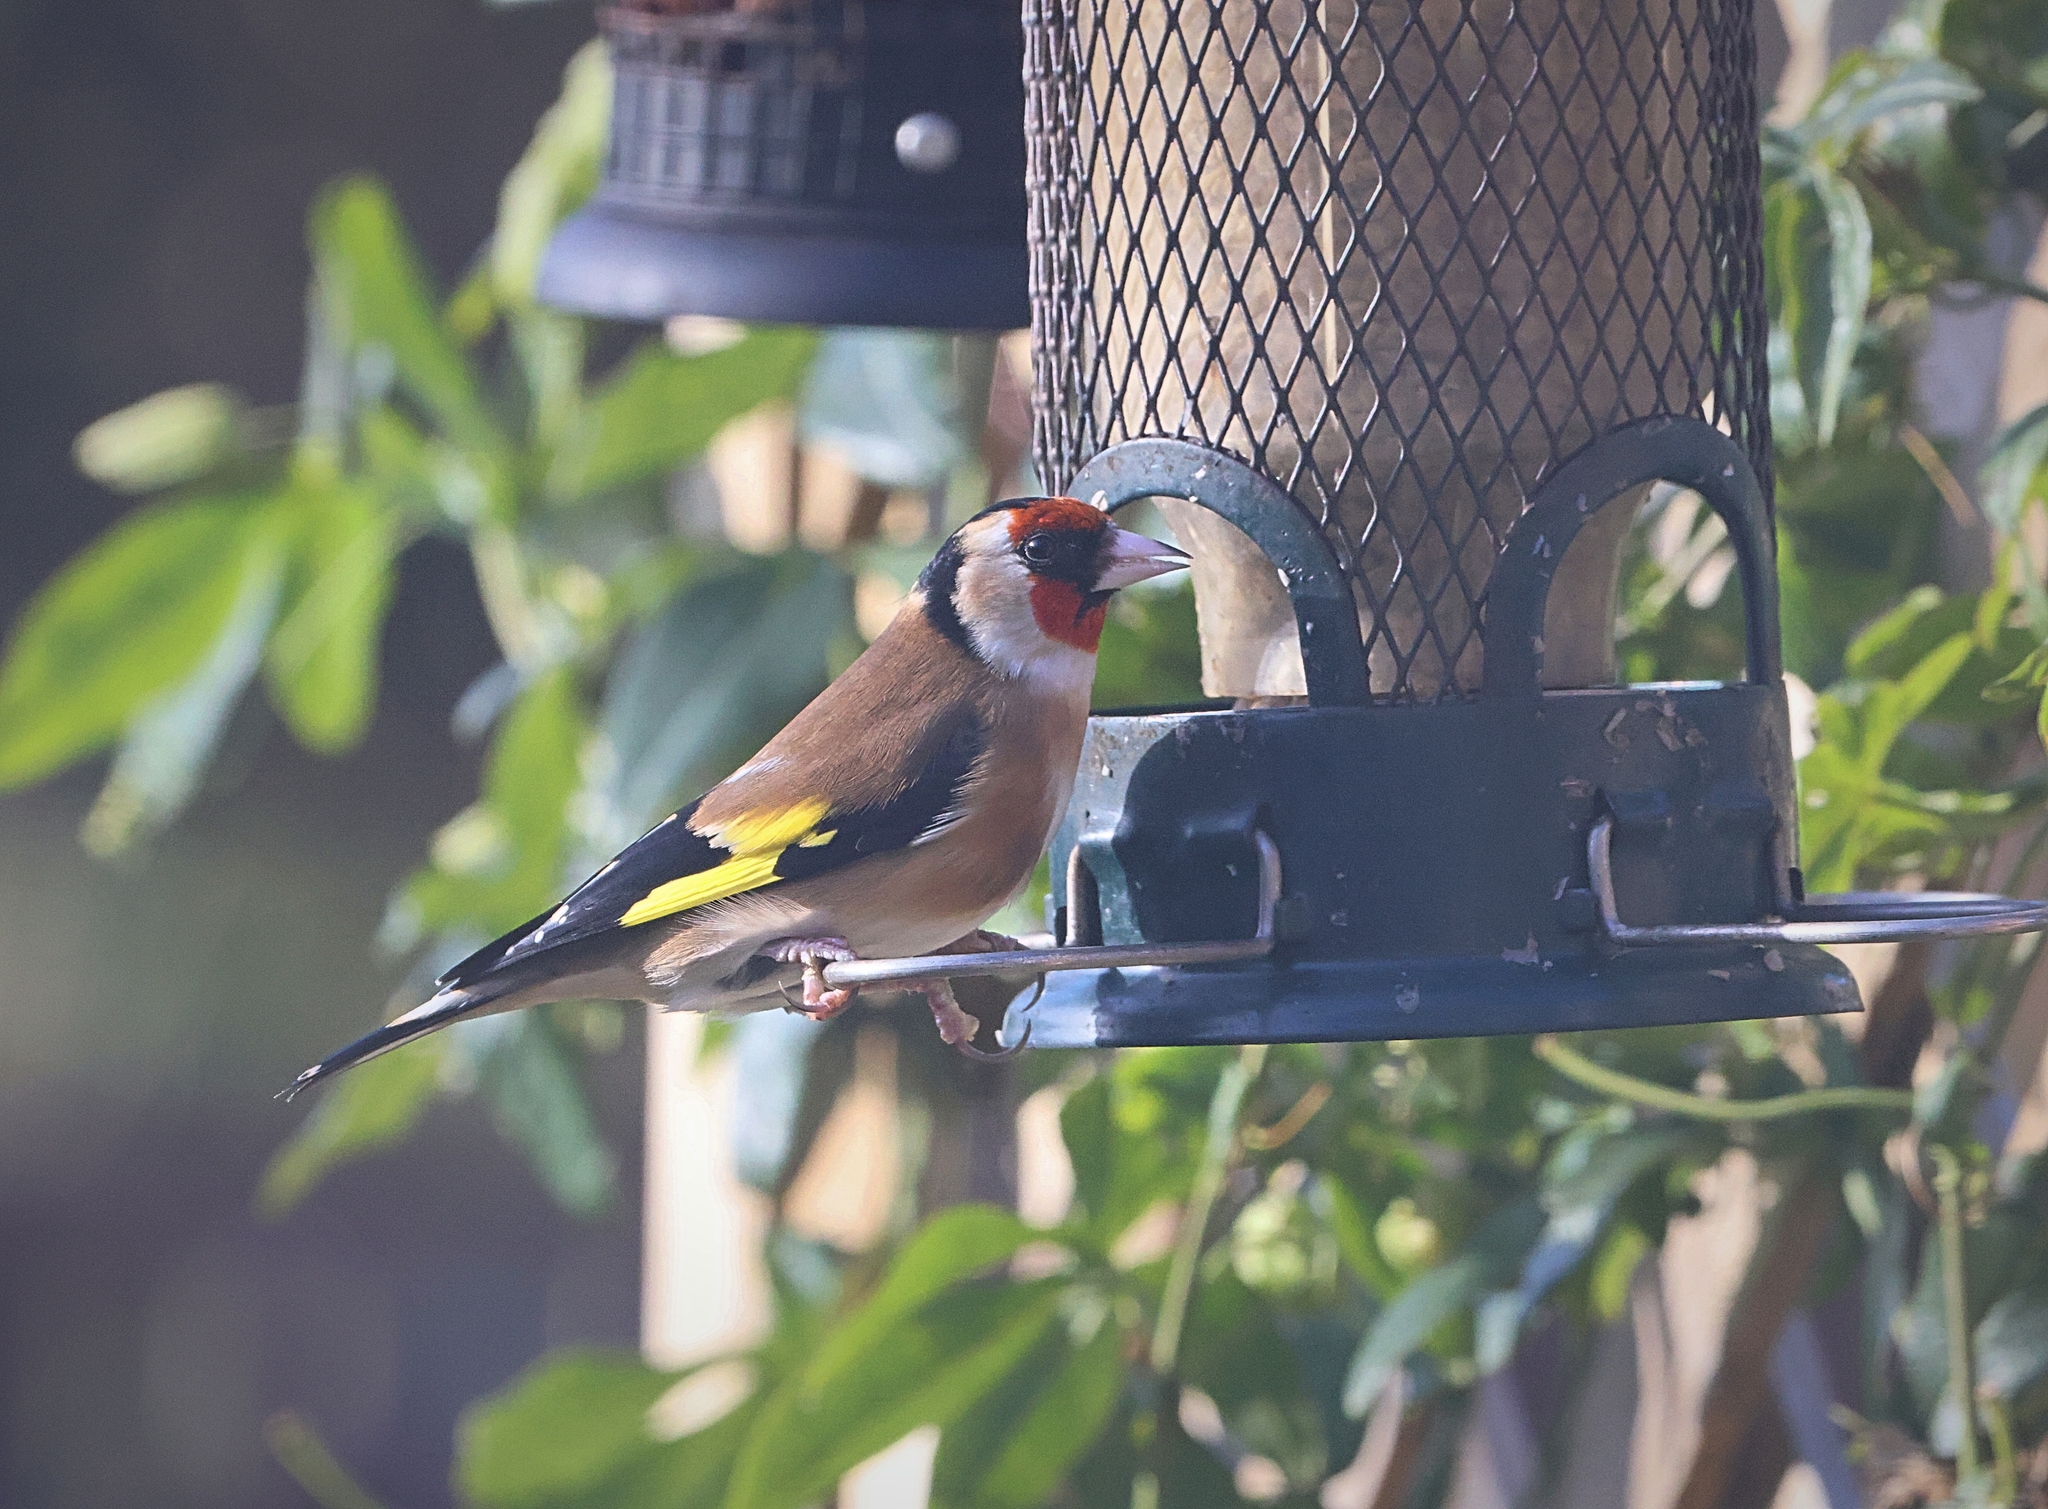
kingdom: Animalia
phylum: Chordata
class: Aves
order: Passeriformes
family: Fringillidae
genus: Carduelis
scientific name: Carduelis carduelis
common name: European goldfinch
